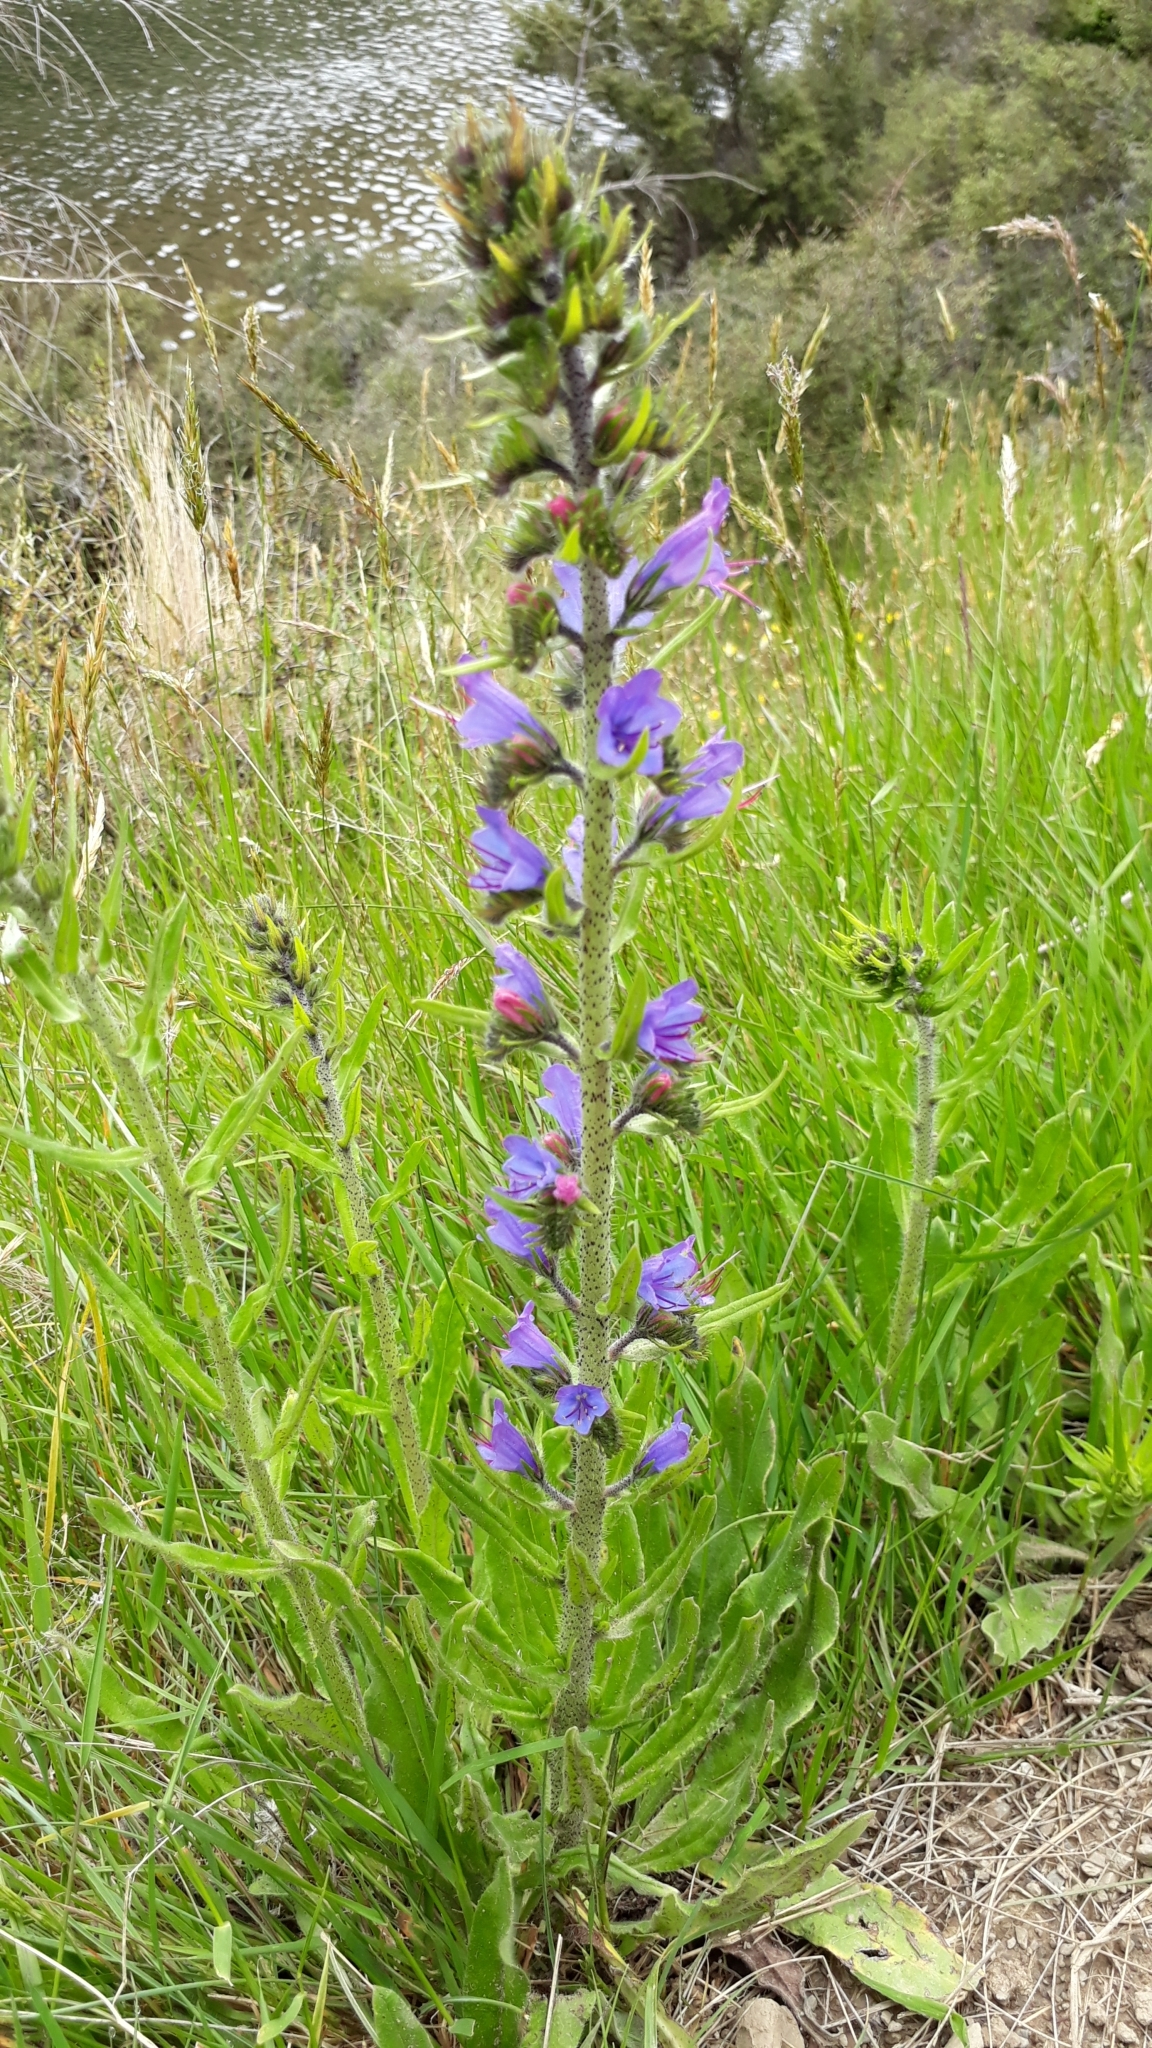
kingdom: Plantae
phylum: Tracheophyta
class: Magnoliopsida
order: Boraginales
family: Boraginaceae
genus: Echium
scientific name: Echium vulgare
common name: Common viper's bugloss
